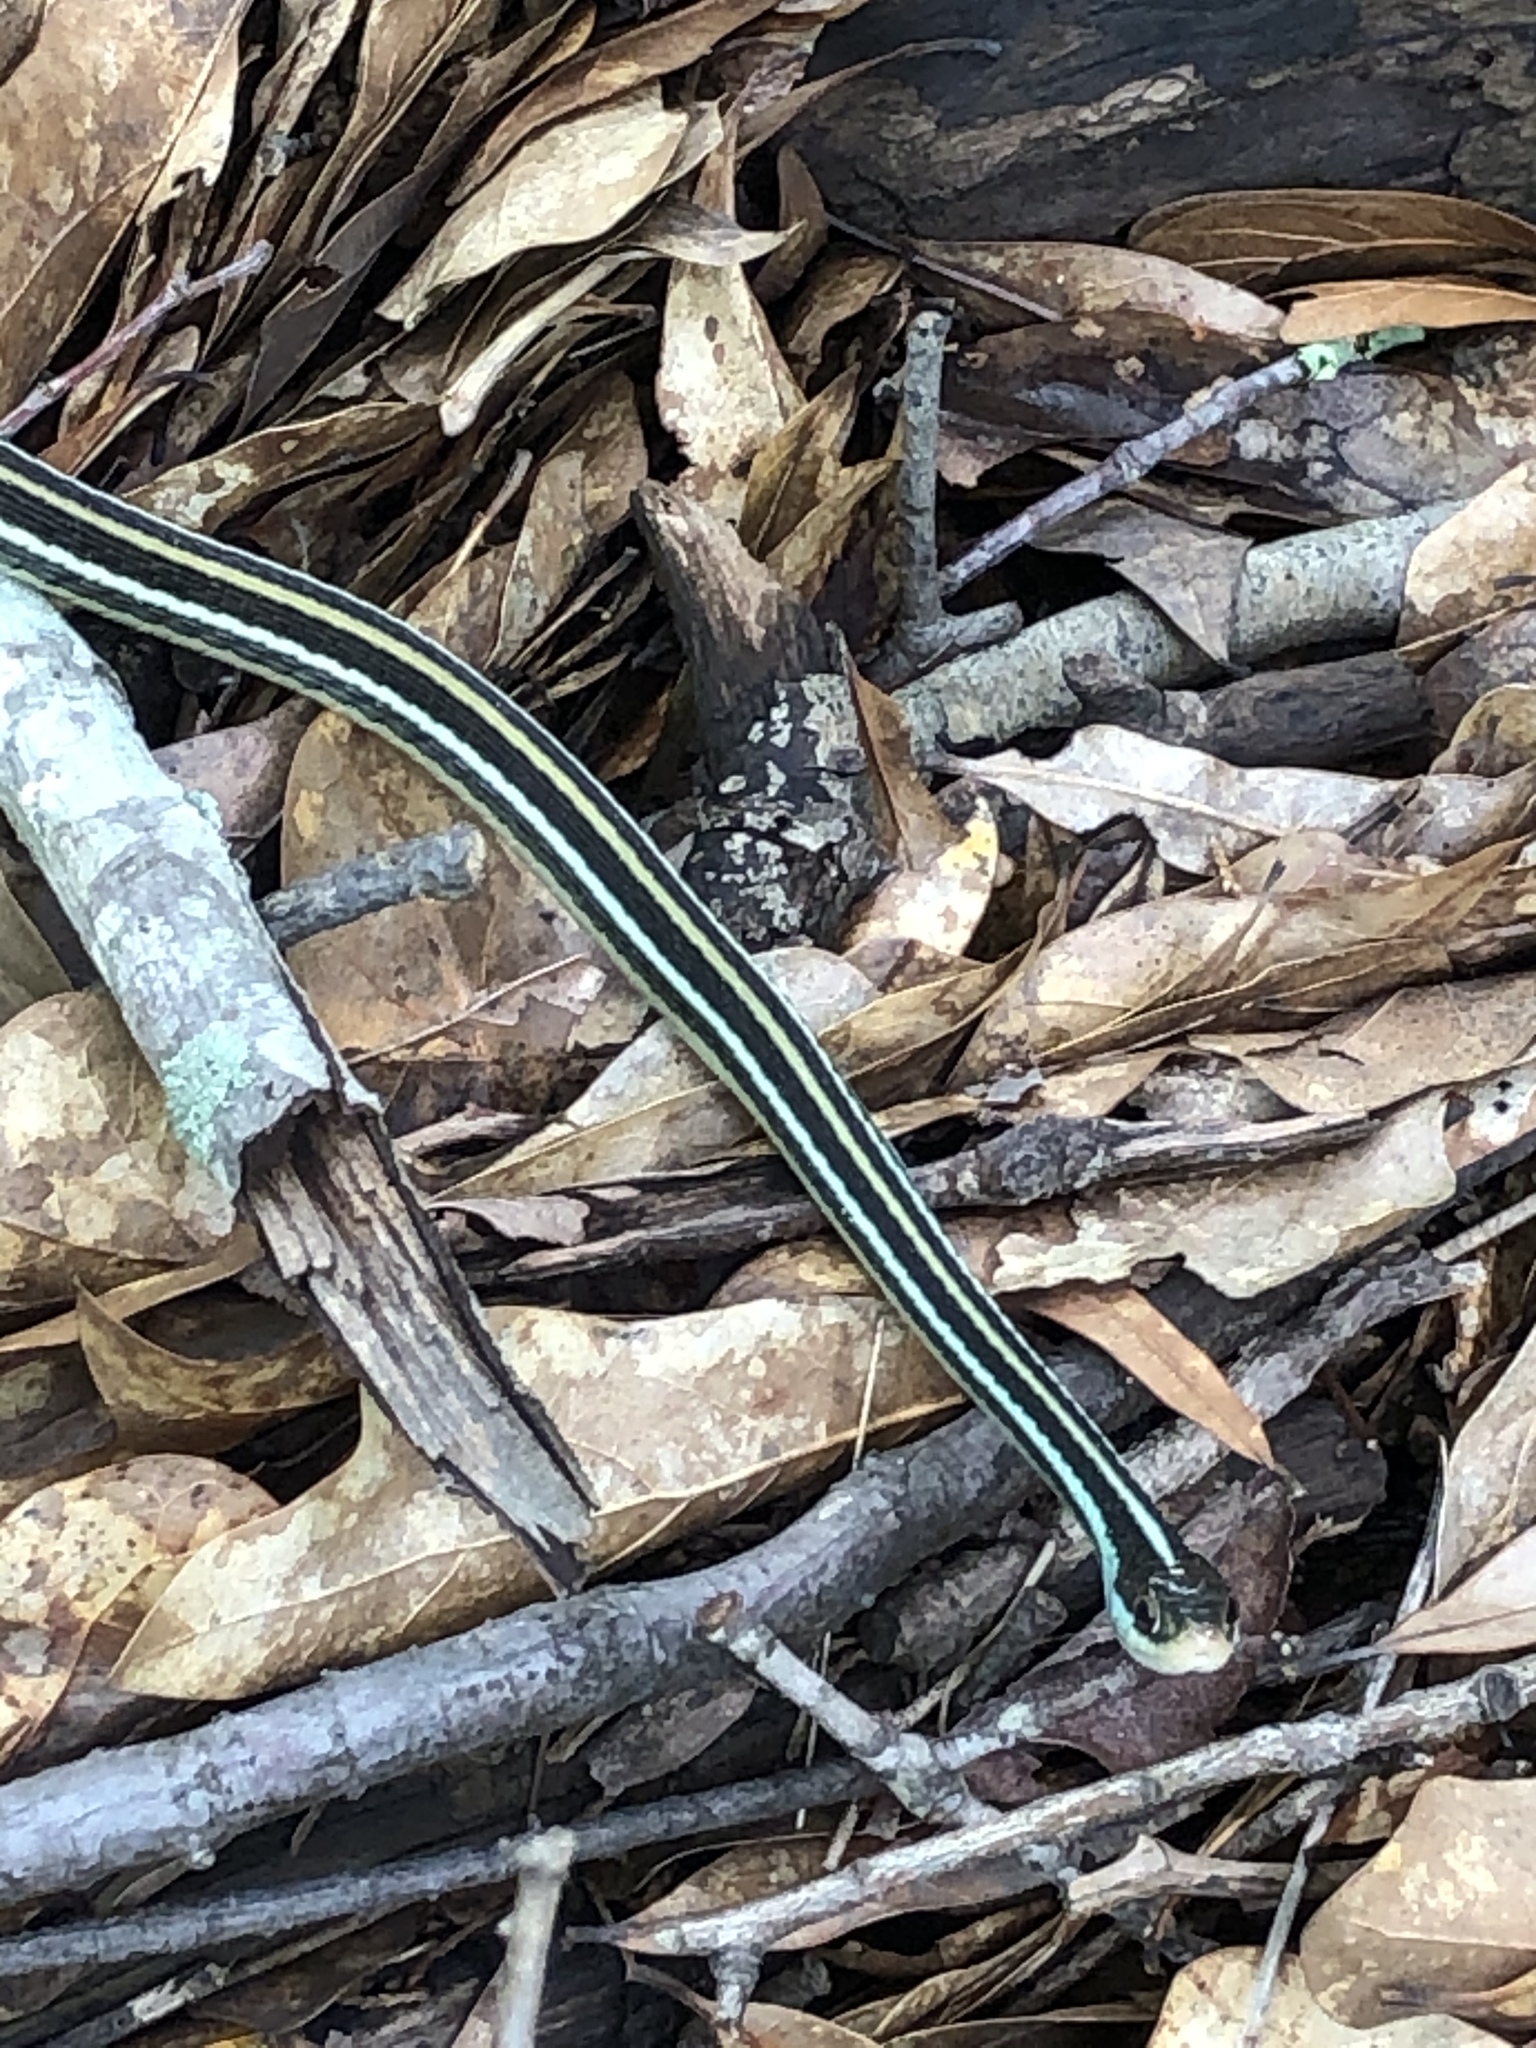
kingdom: Animalia
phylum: Chordata
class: Squamata
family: Colubridae
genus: Thamnophis
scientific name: Thamnophis proximus
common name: Western ribbon snake
